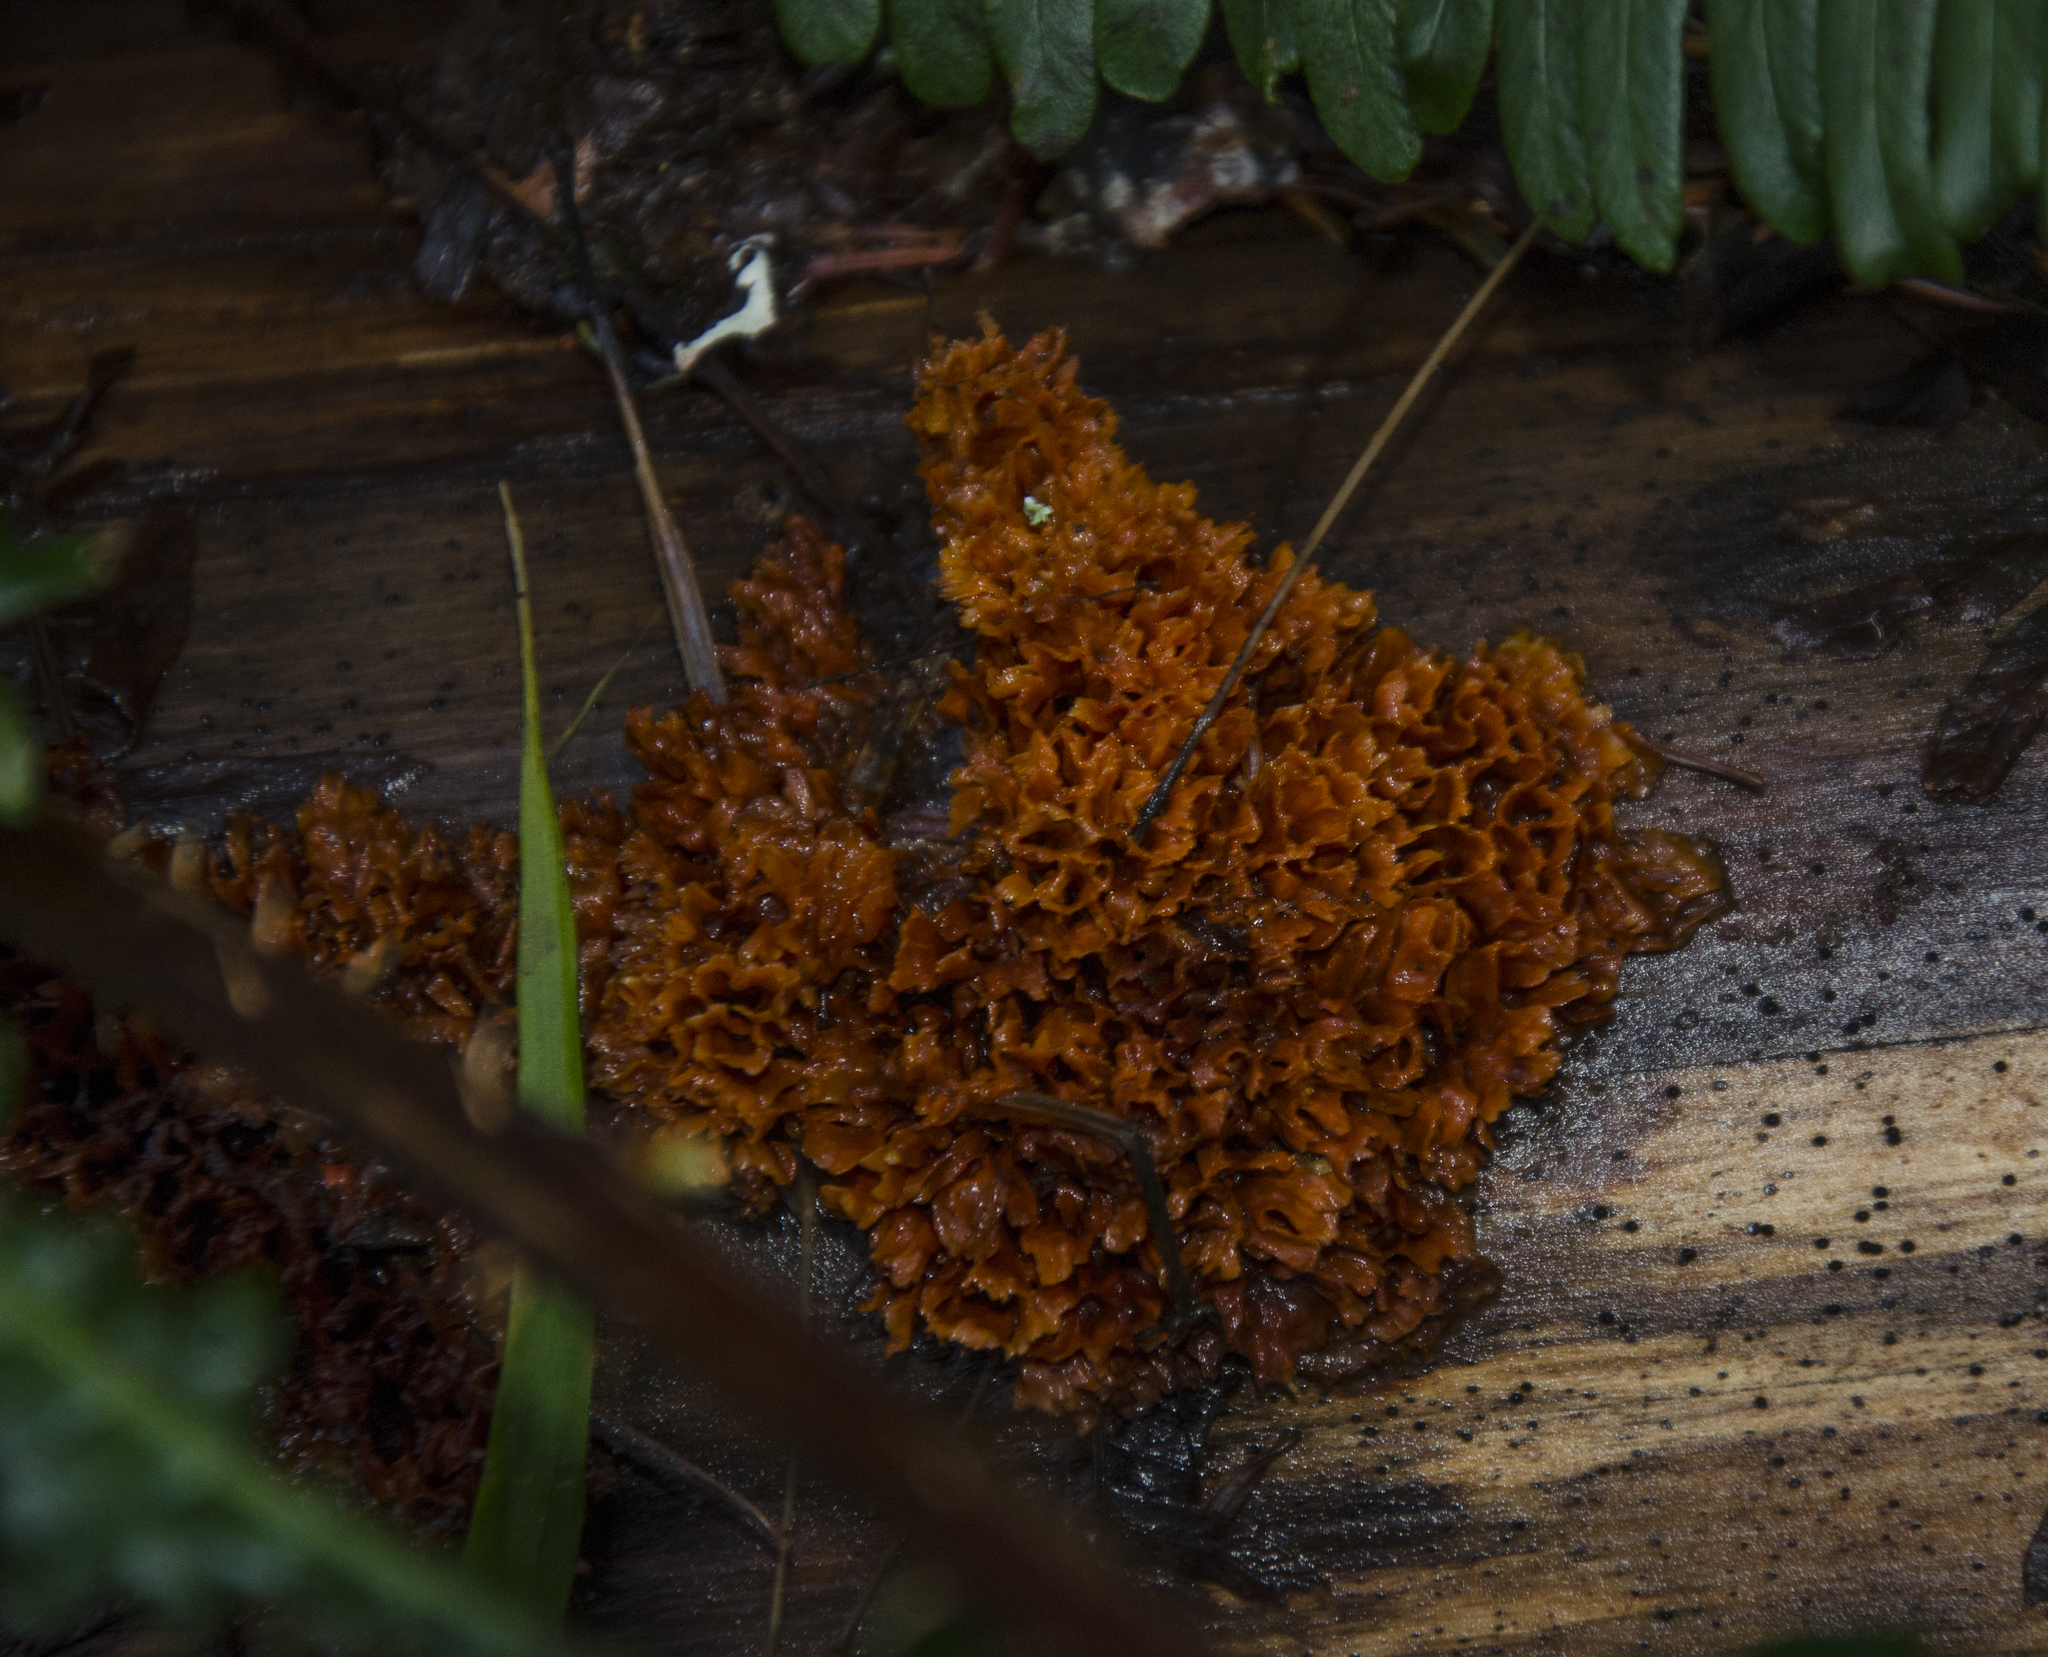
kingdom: Fungi
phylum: Basidiomycota
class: Agaricomycetes
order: Polyporales
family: Pycnoporellaceae
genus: Pycnoporellus
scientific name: Pycnoporellus alboluteus
